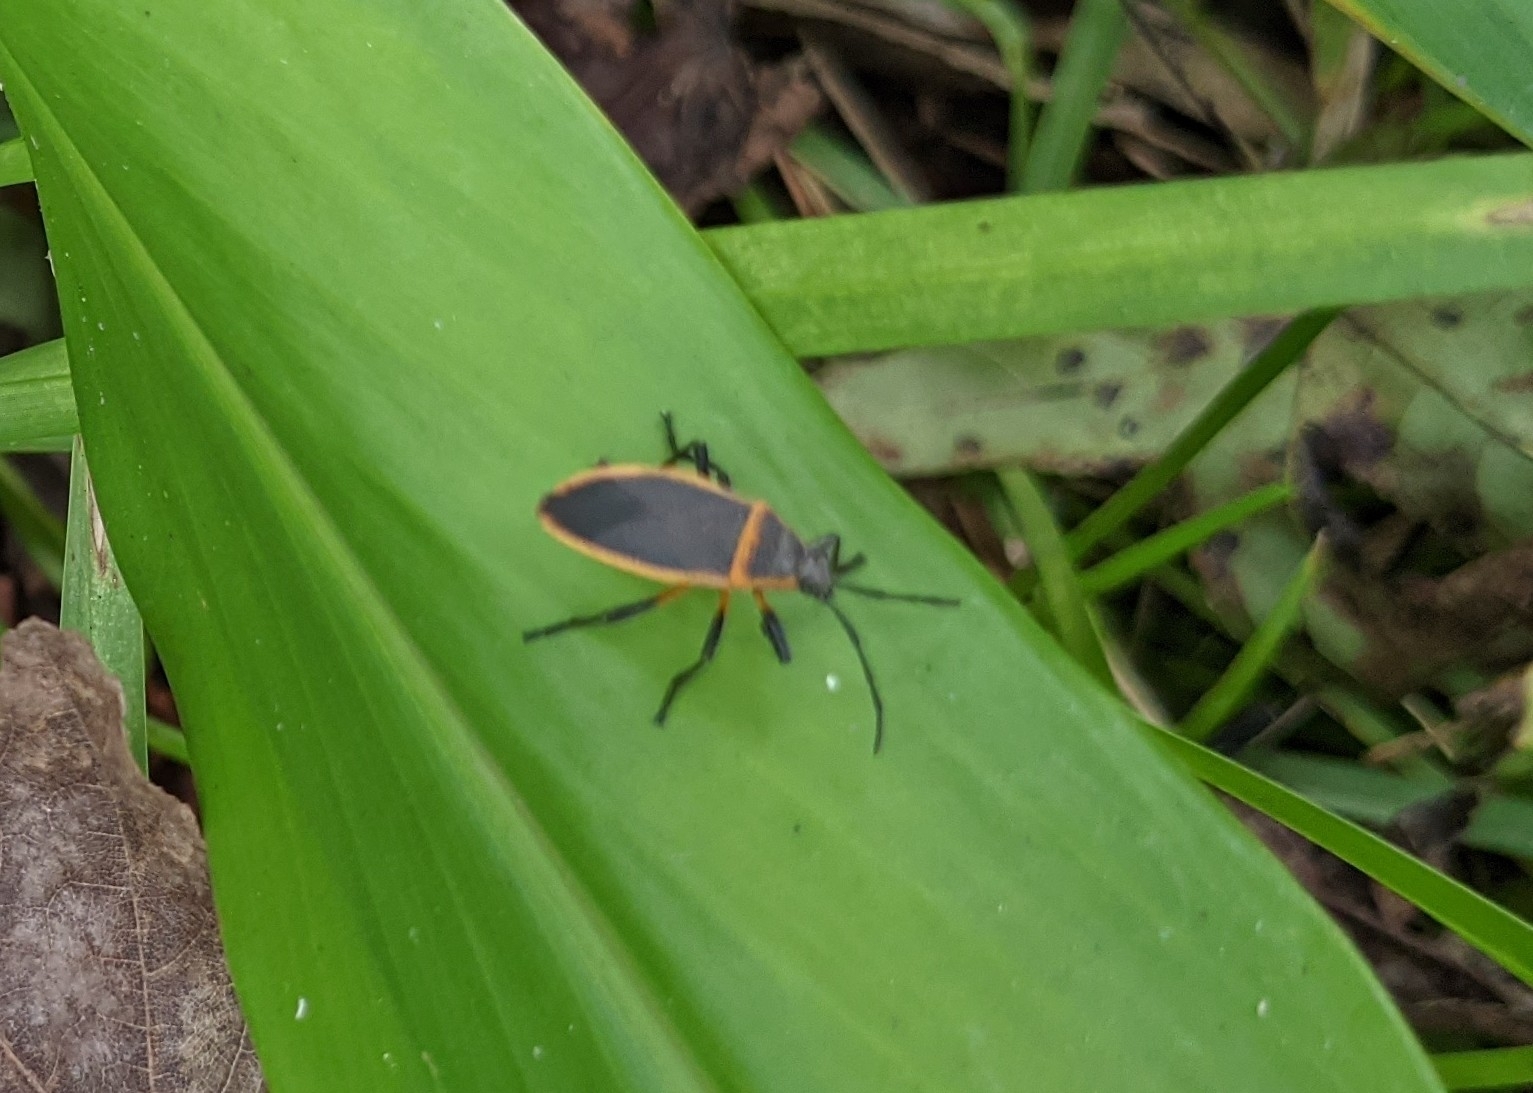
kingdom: Animalia
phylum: Arthropoda
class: Insecta
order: Hemiptera
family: Largidae
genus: Largus
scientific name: Largus succinctus
